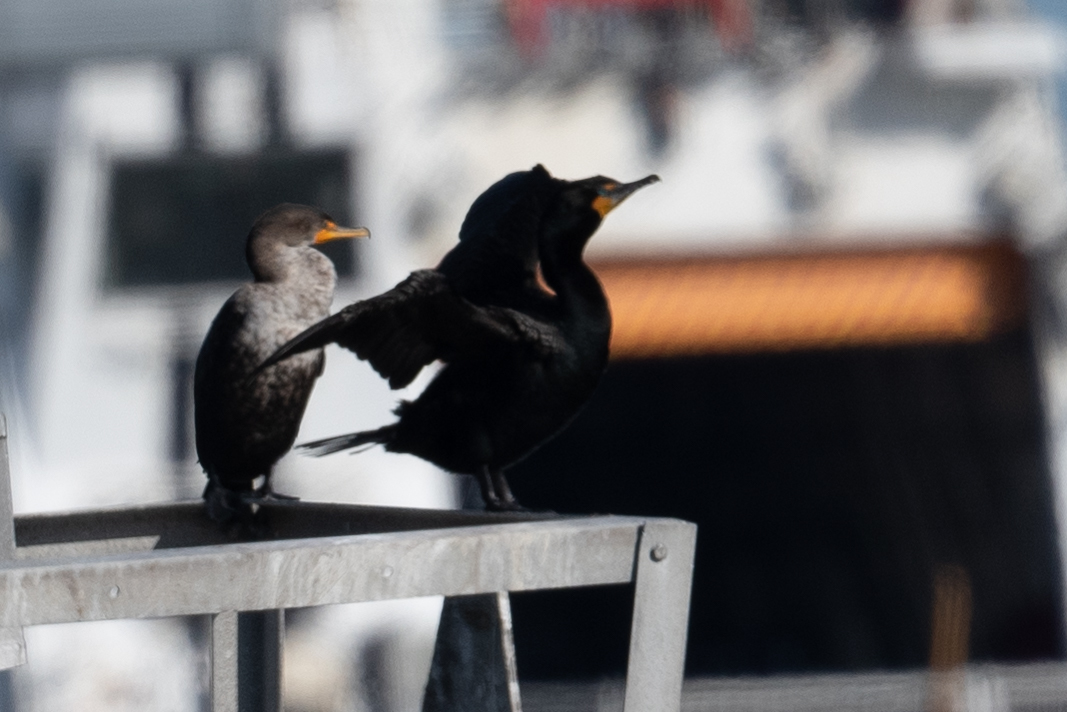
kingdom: Animalia
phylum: Chordata
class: Aves
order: Suliformes
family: Phalacrocoracidae
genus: Phalacrocorax
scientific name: Phalacrocorax auritus
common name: Double-crested cormorant
